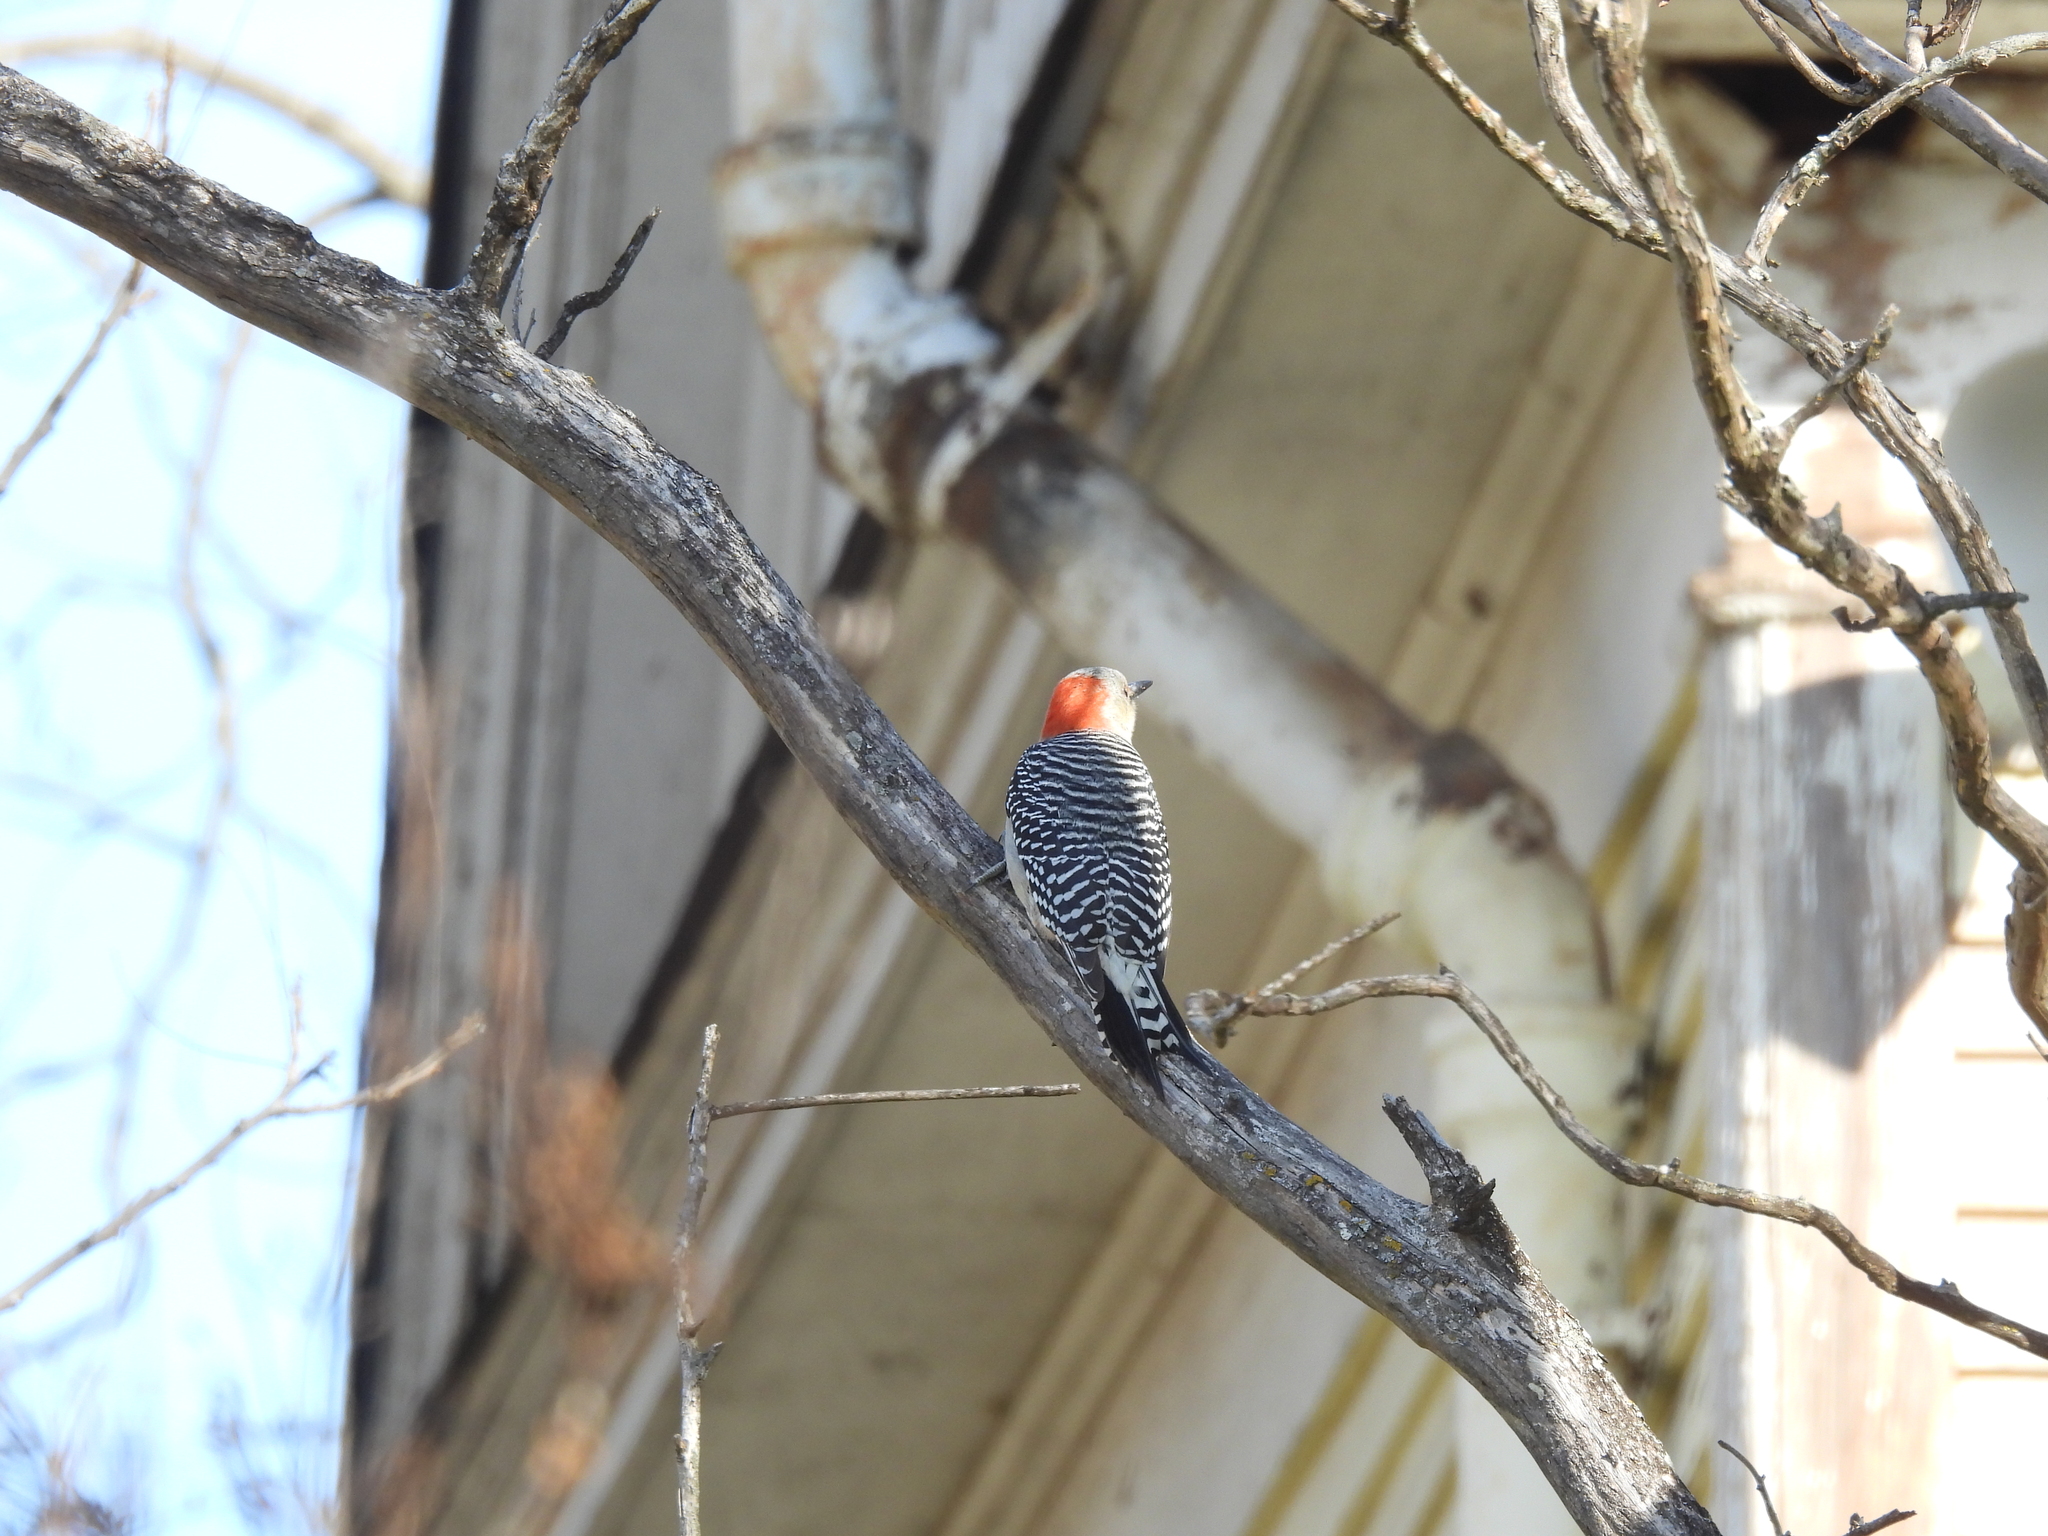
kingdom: Animalia
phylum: Chordata
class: Aves
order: Piciformes
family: Picidae
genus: Melanerpes
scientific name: Melanerpes carolinus
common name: Red-bellied woodpecker
